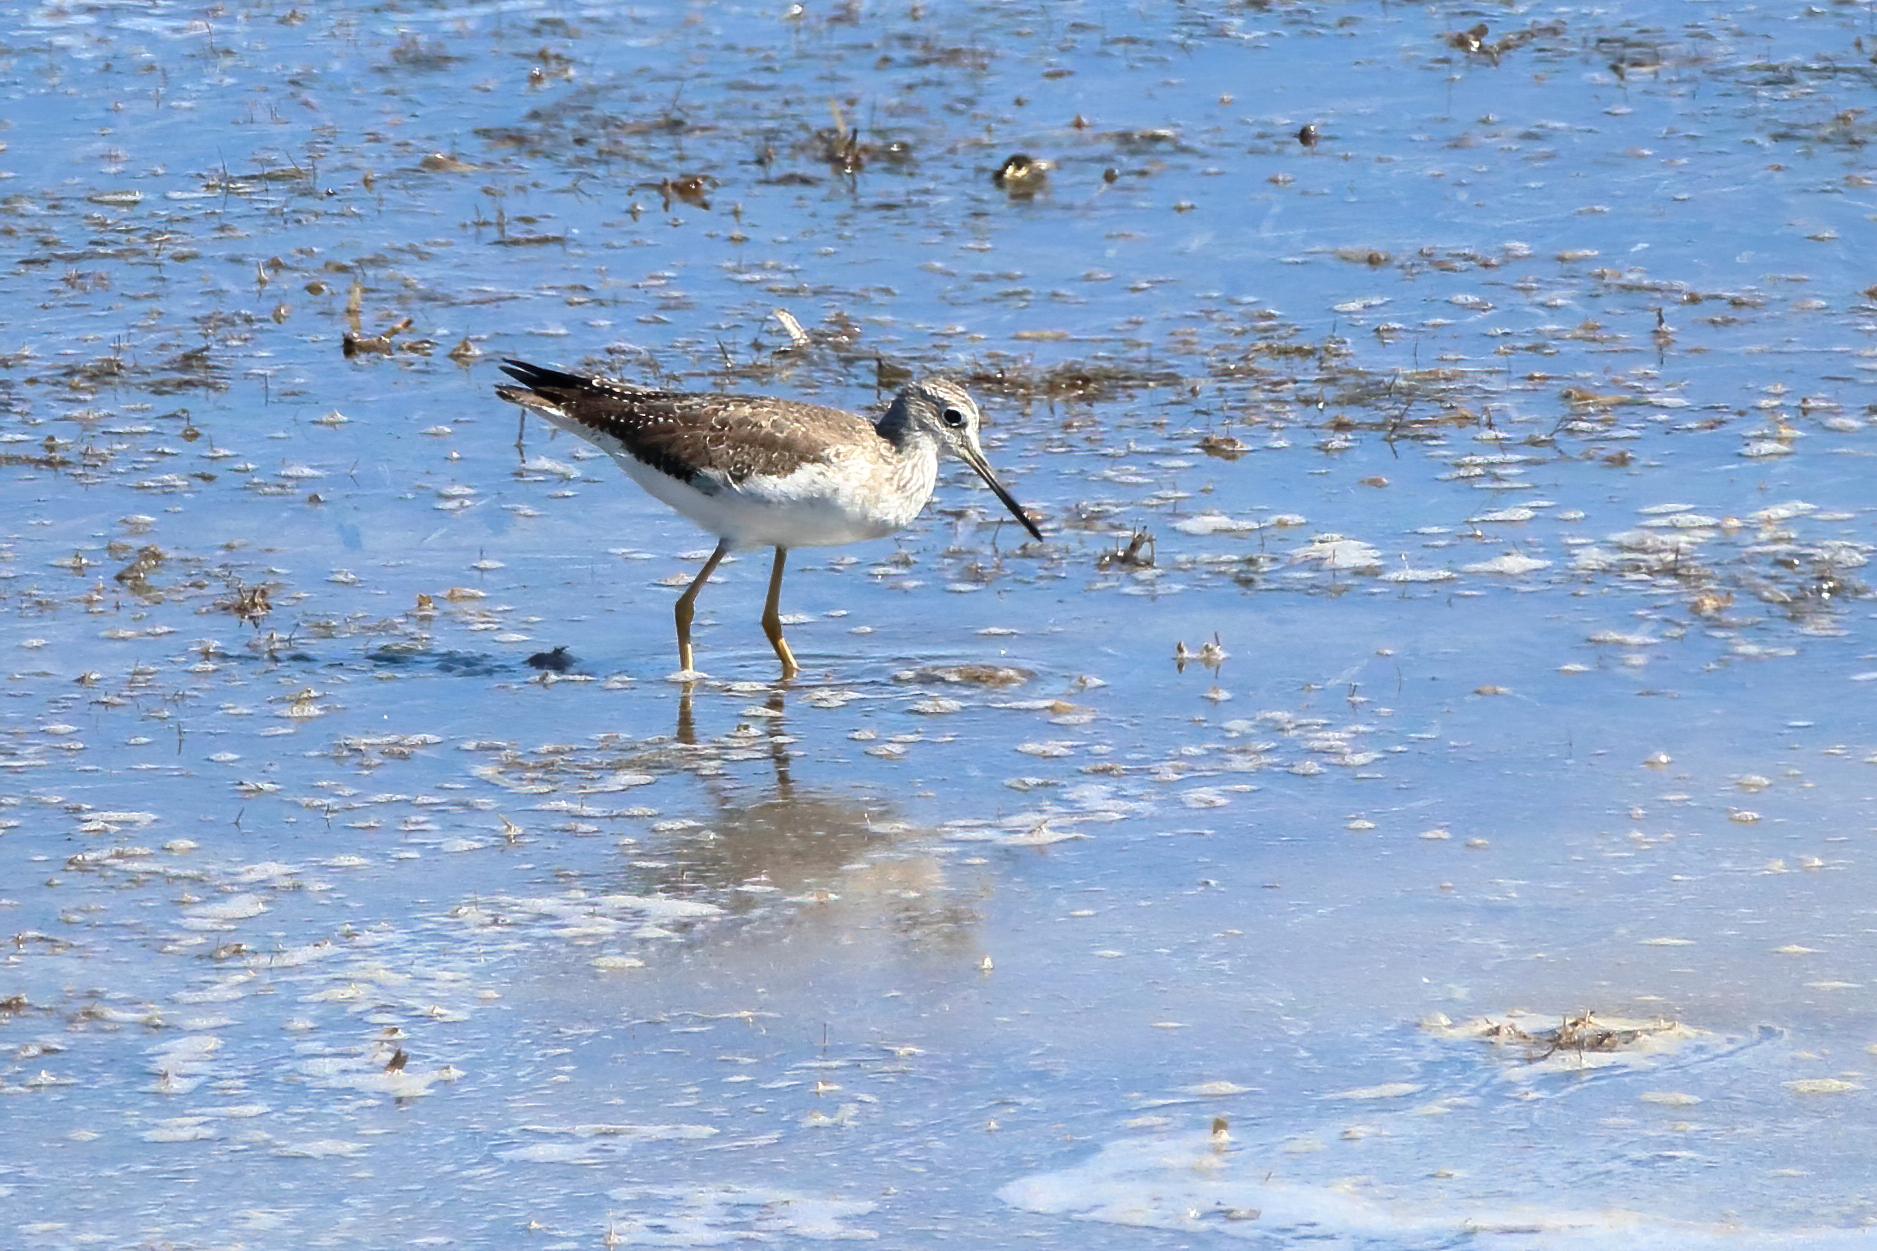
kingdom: Animalia
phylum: Chordata
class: Aves
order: Charadriiformes
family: Scolopacidae
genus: Tringa
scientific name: Tringa melanoleuca
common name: Greater yellowlegs
